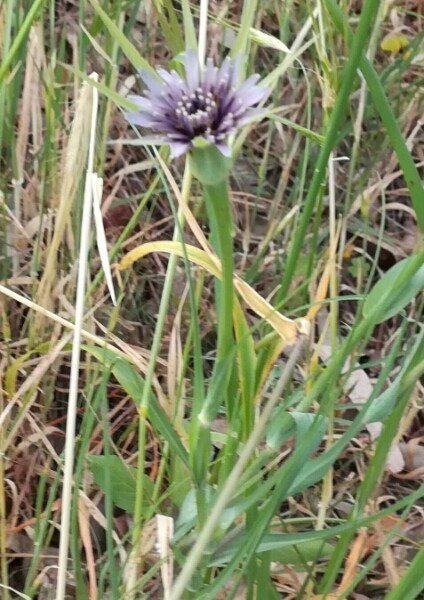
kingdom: Plantae
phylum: Tracheophyta
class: Magnoliopsida
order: Asterales
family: Asteraceae
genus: Tragopogon
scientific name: Tragopogon coelesyriacus
